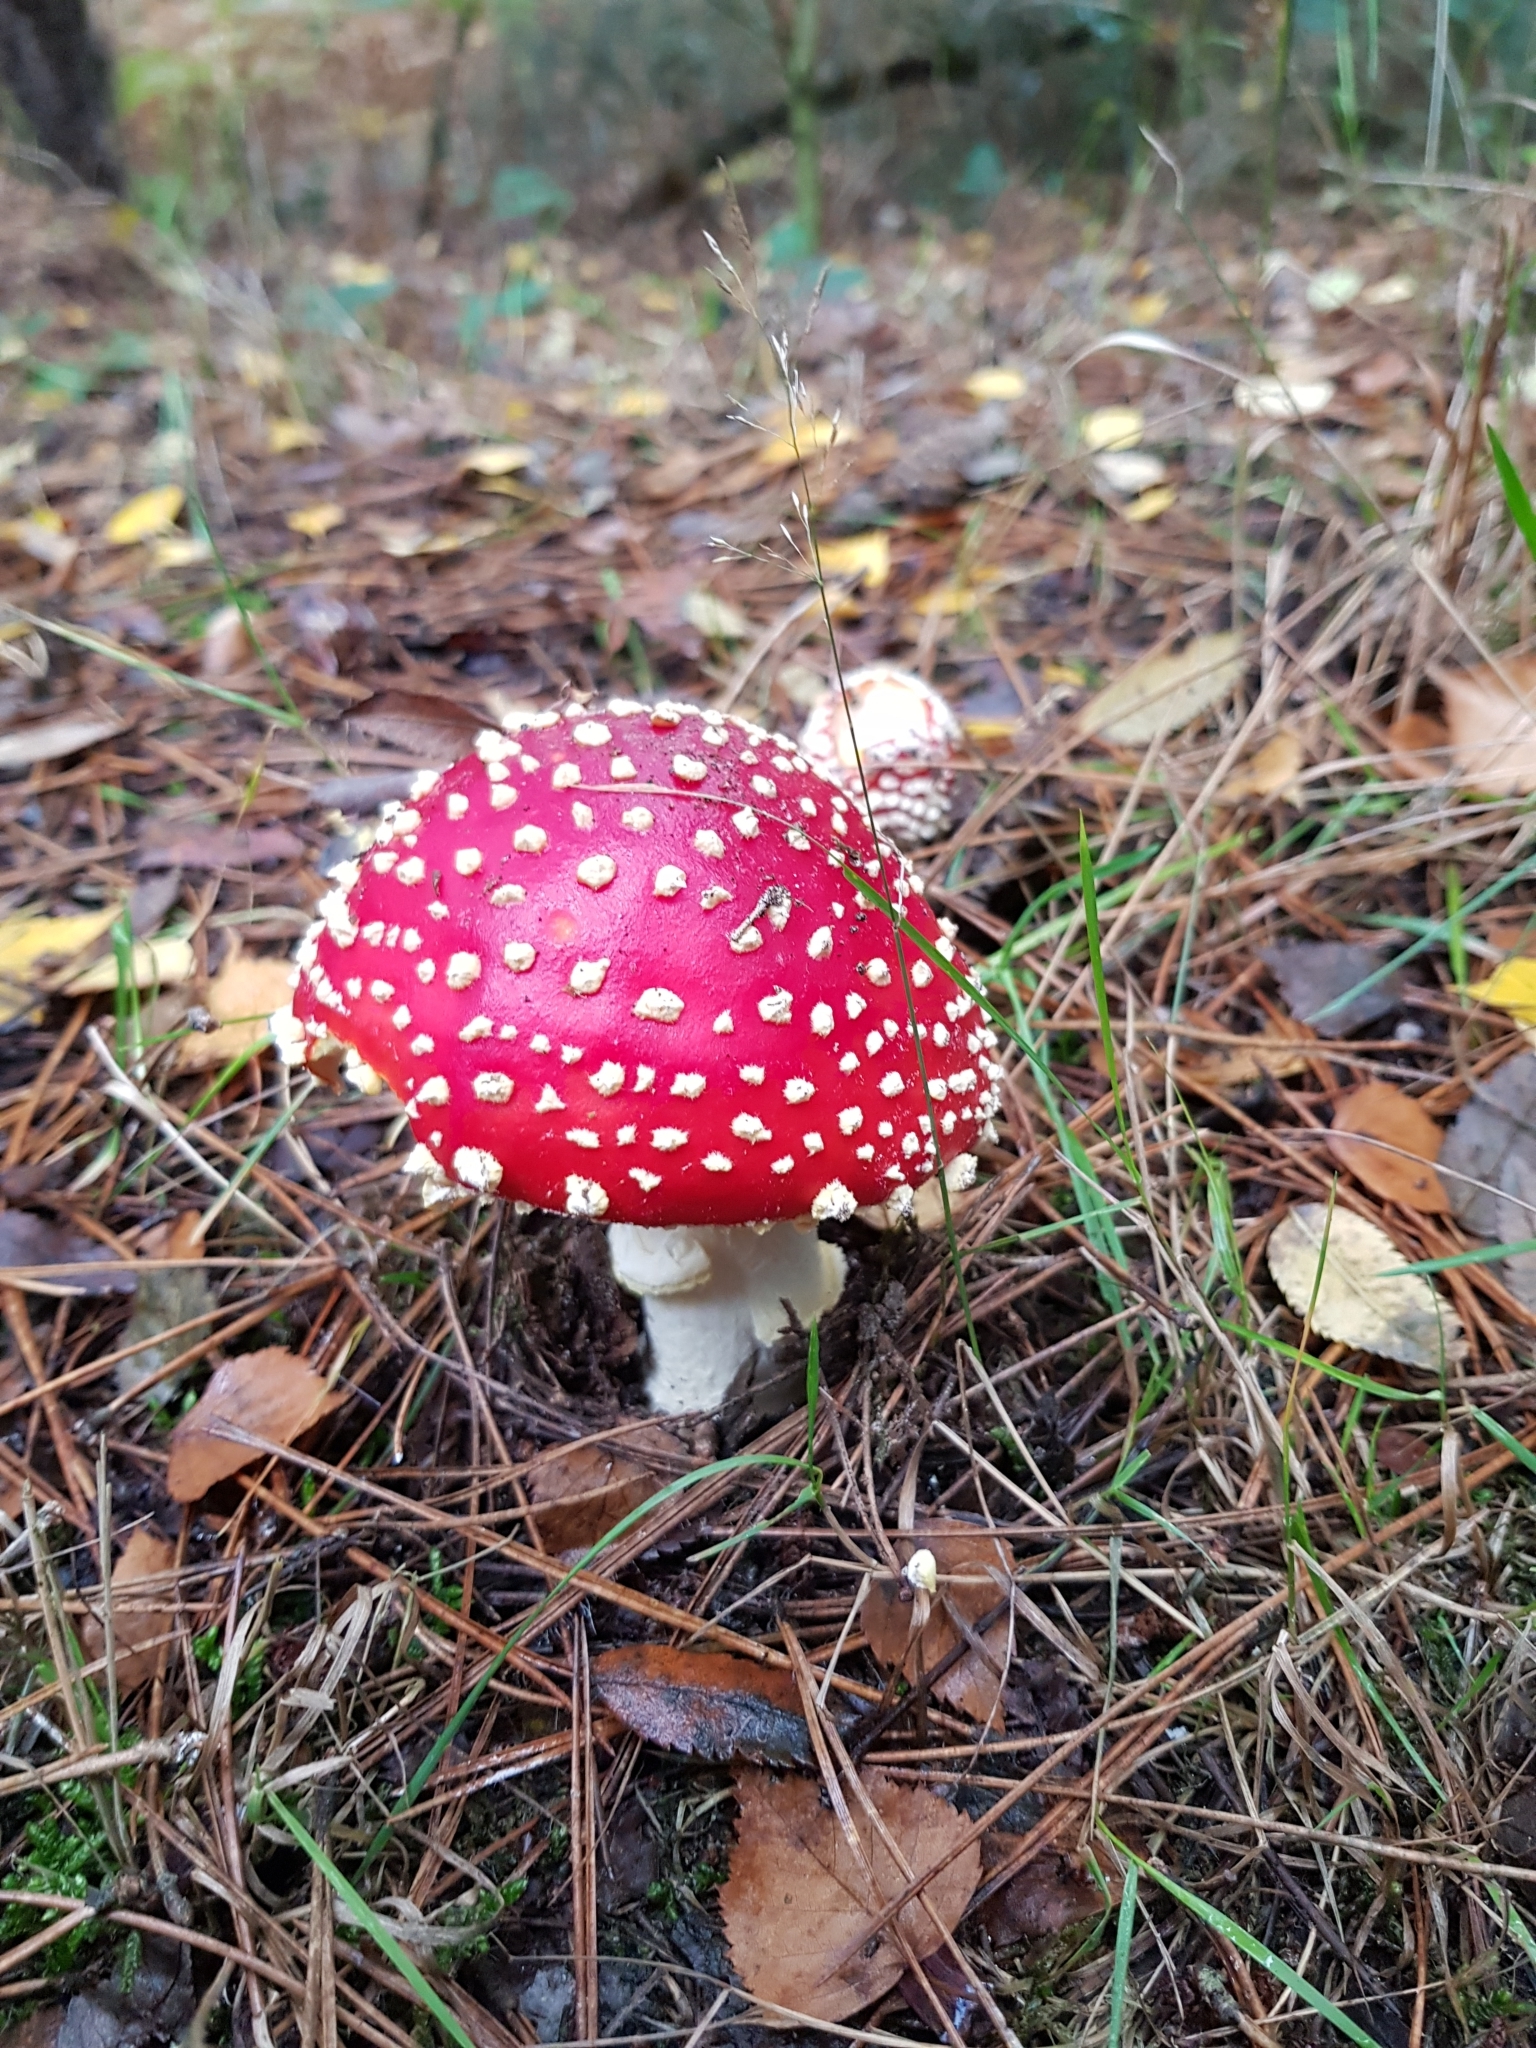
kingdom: Fungi
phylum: Basidiomycota
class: Agaricomycetes
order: Agaricales
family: Amanitaceae
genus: Amanita
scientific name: Amanita muscaria
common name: Fly agaric
